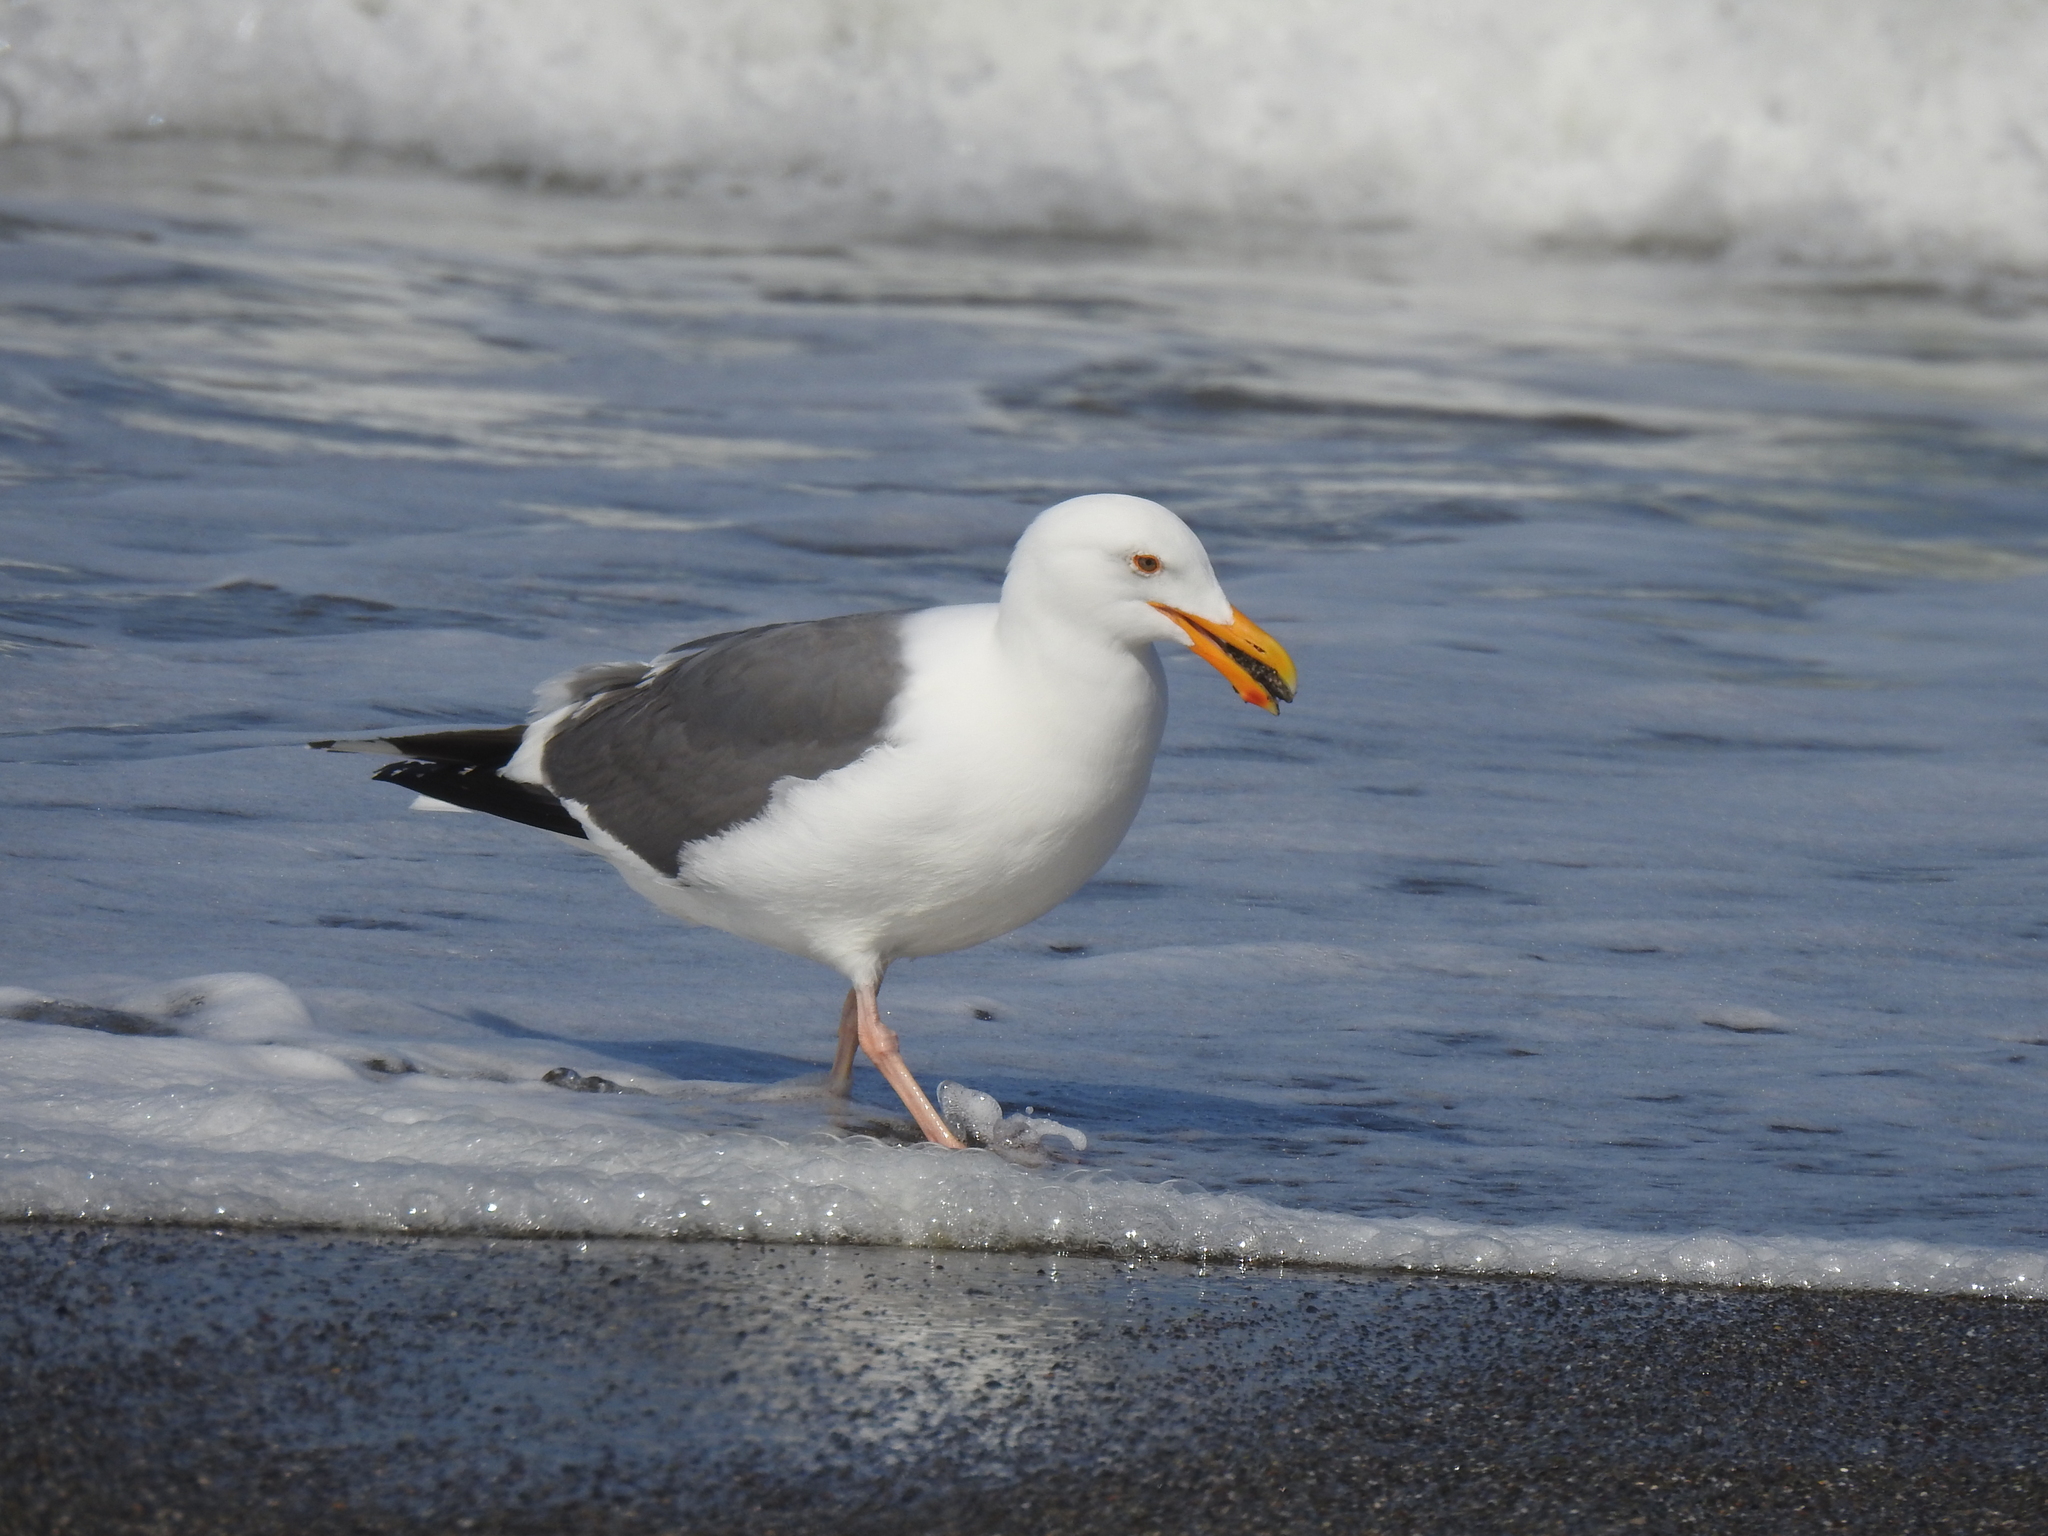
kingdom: Animalia
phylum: Chordata
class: Aves
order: Charadriiformes
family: Laridae
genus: Larus
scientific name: Larus occidentalis
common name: Western gull
